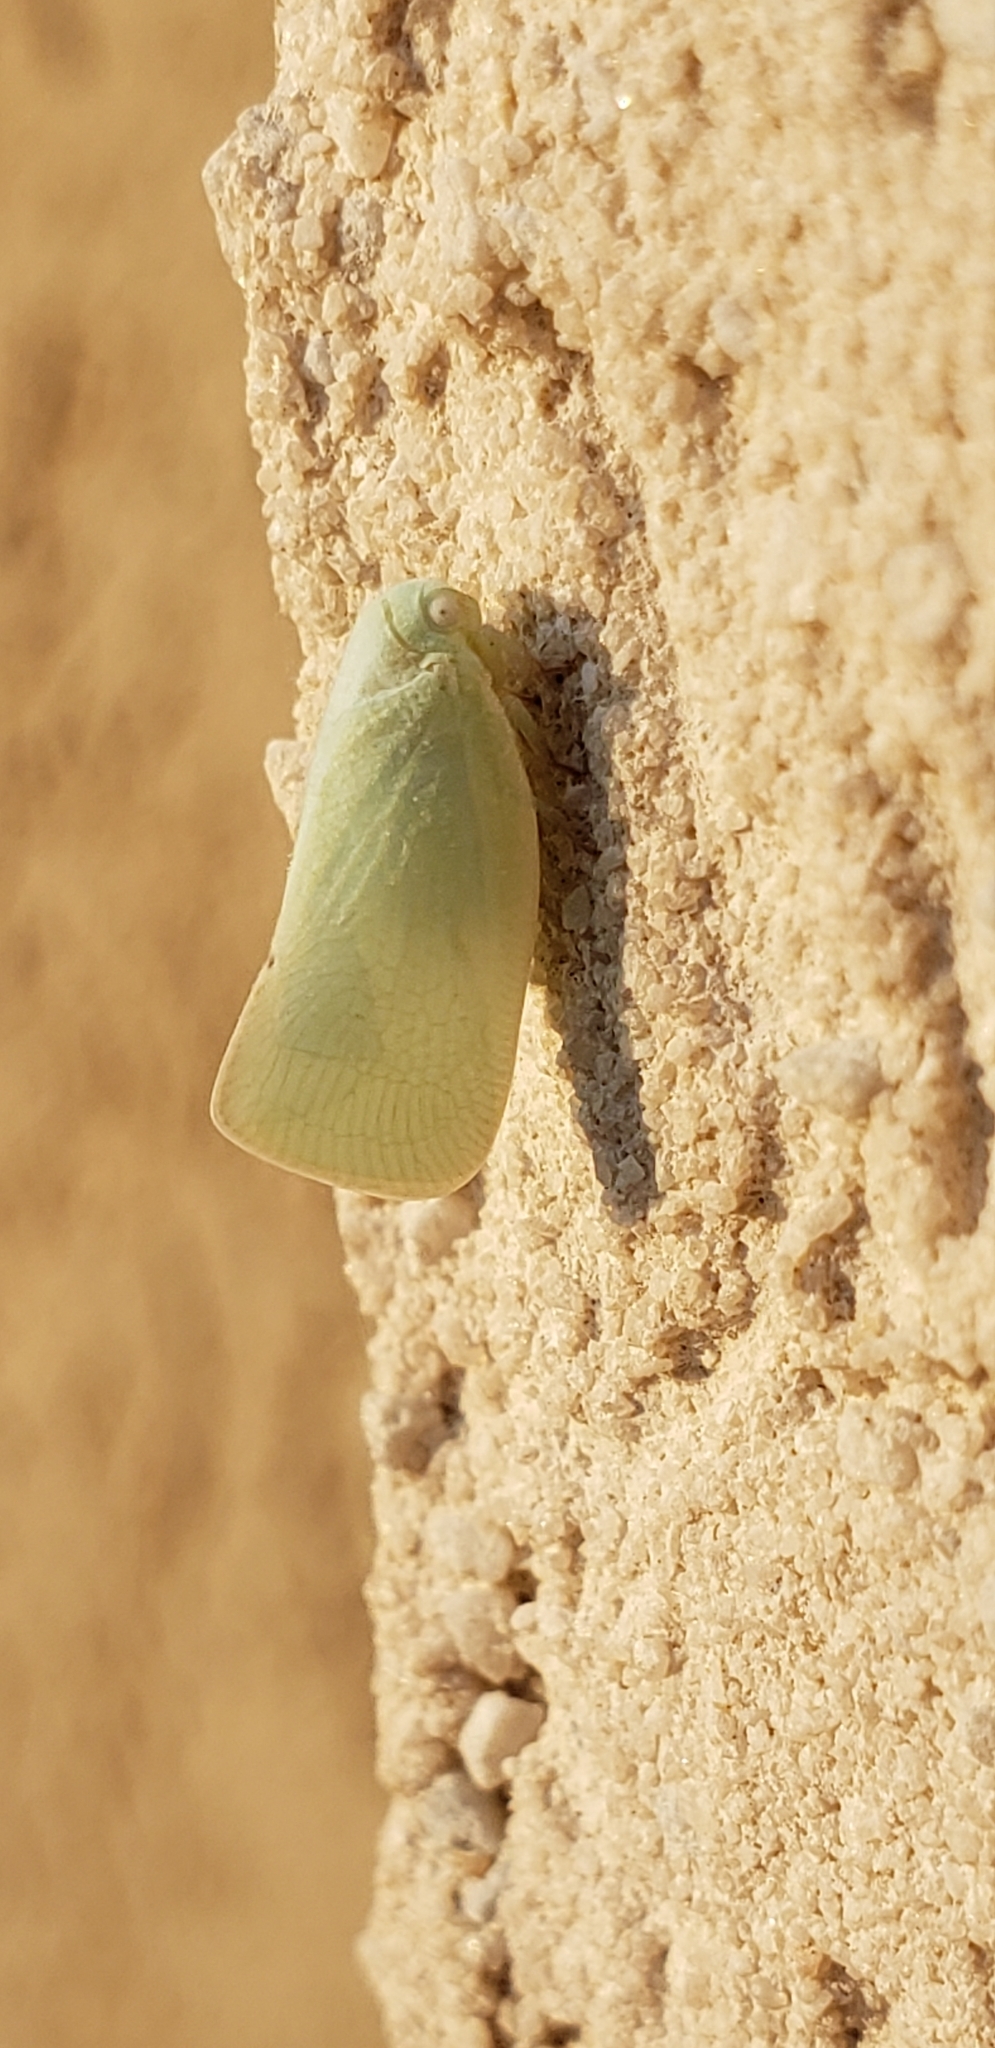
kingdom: Animalia
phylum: Arthropoda
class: Insecta
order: Hemiptera
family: Flatidae
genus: Flatormenis
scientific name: Flatormenis proxima
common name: Northern flatid planthopper
